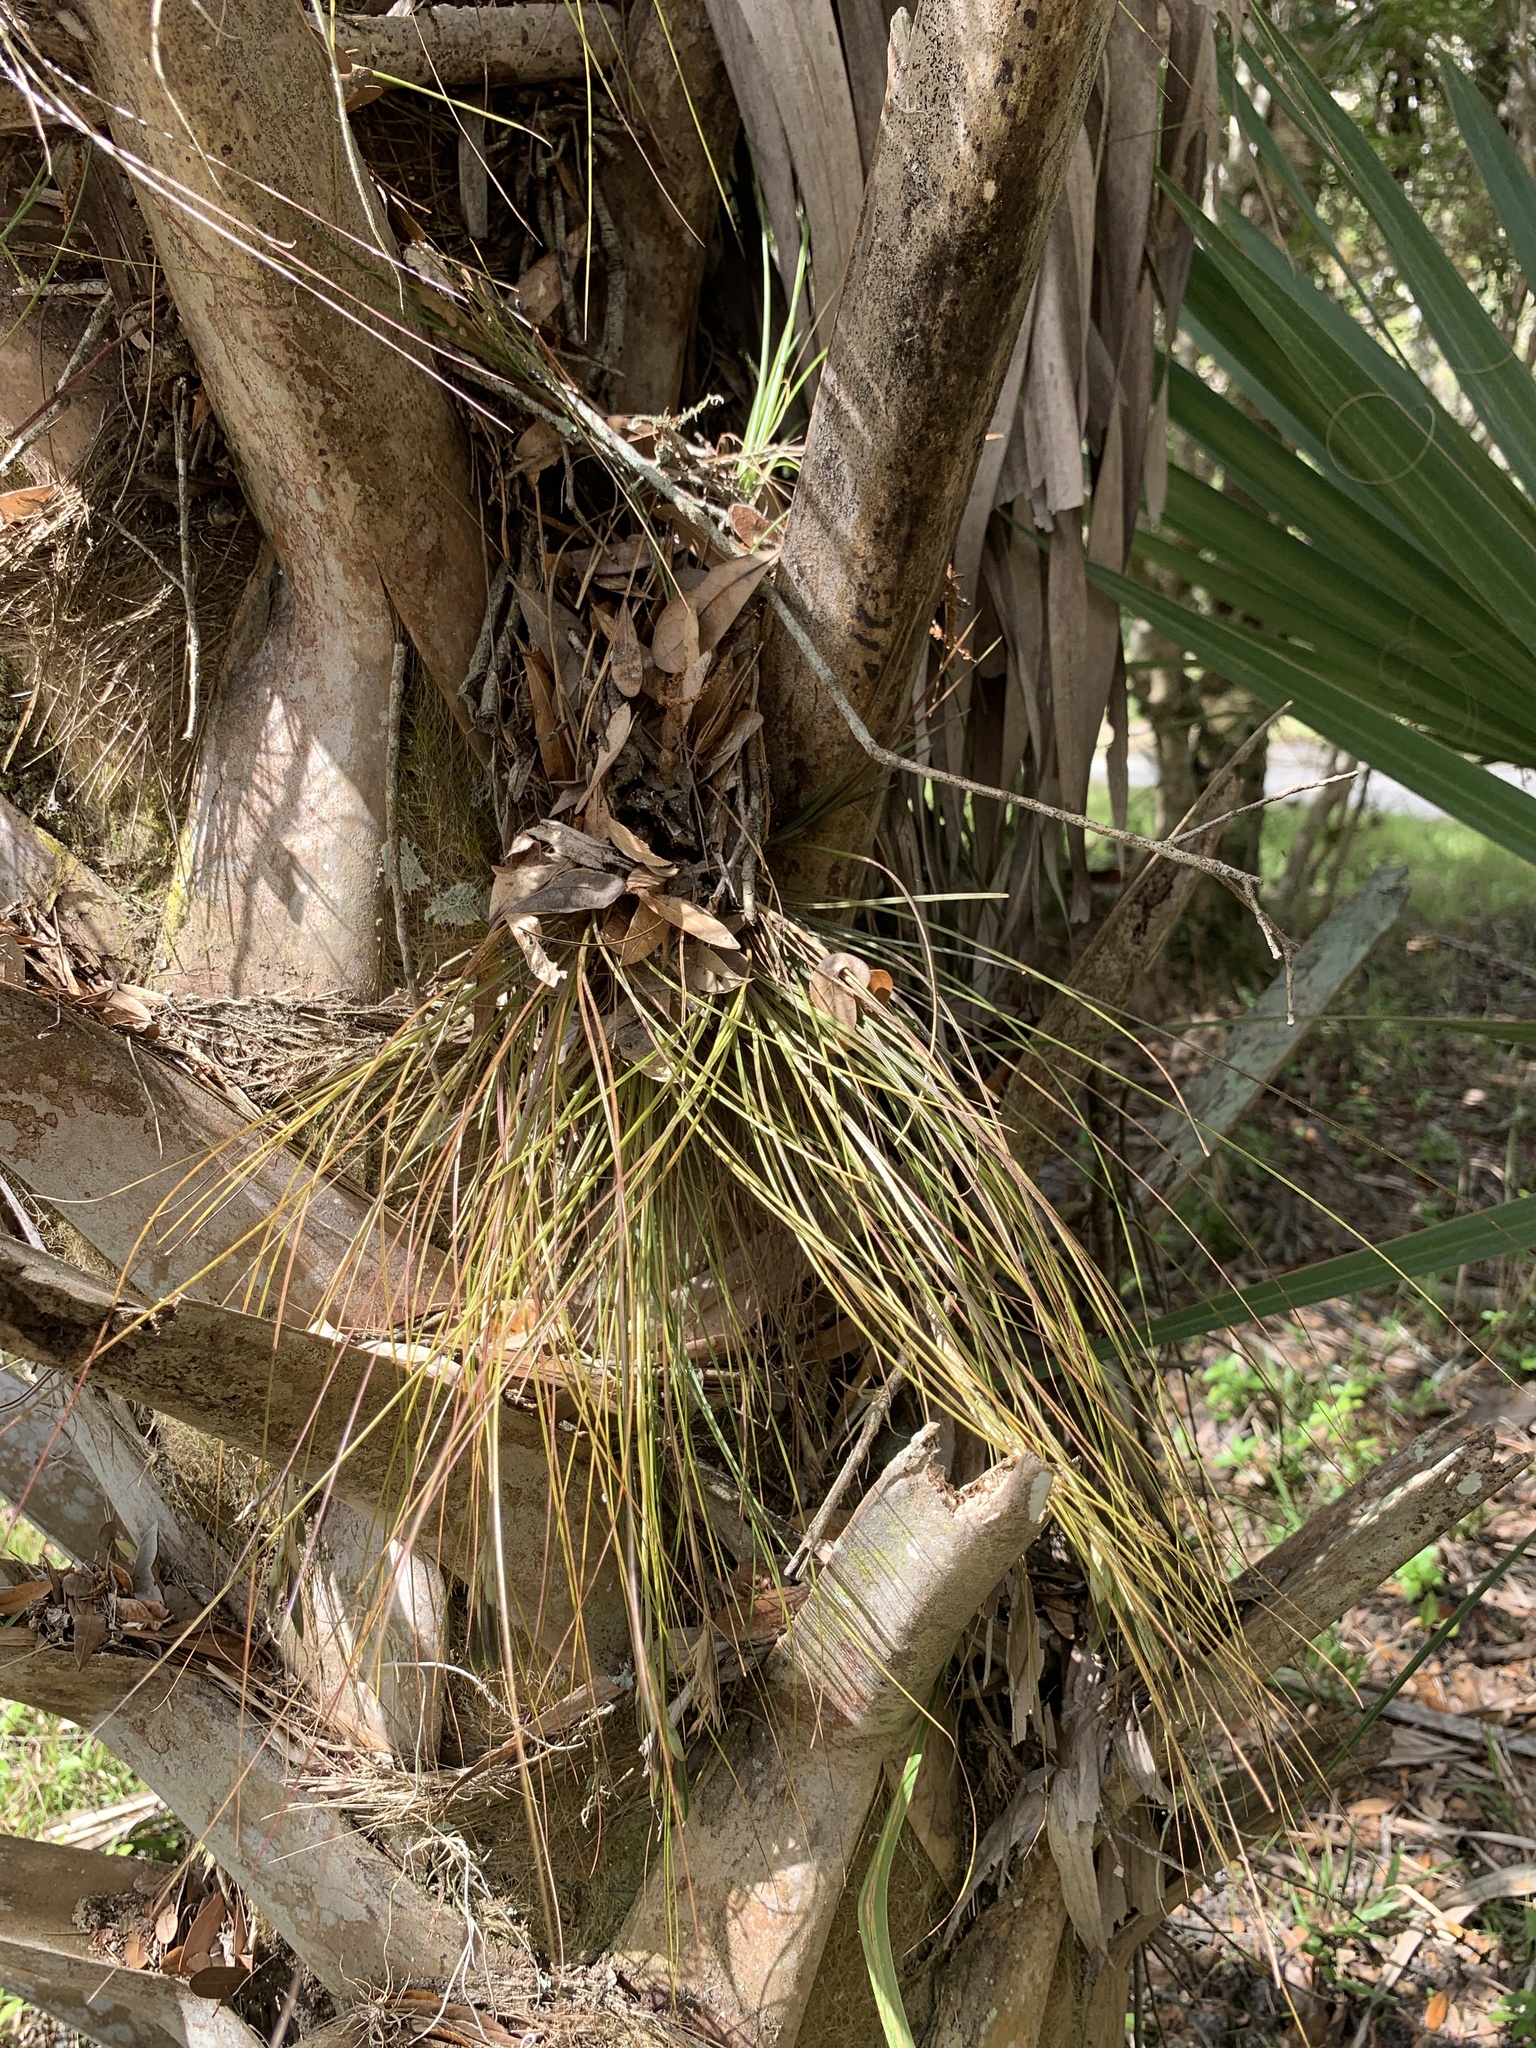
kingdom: Plantae
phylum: Tracheophyta
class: Liliopsida
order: Poales
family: Bromeliaceae
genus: Tillandsia
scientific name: Tillandsia setacea
